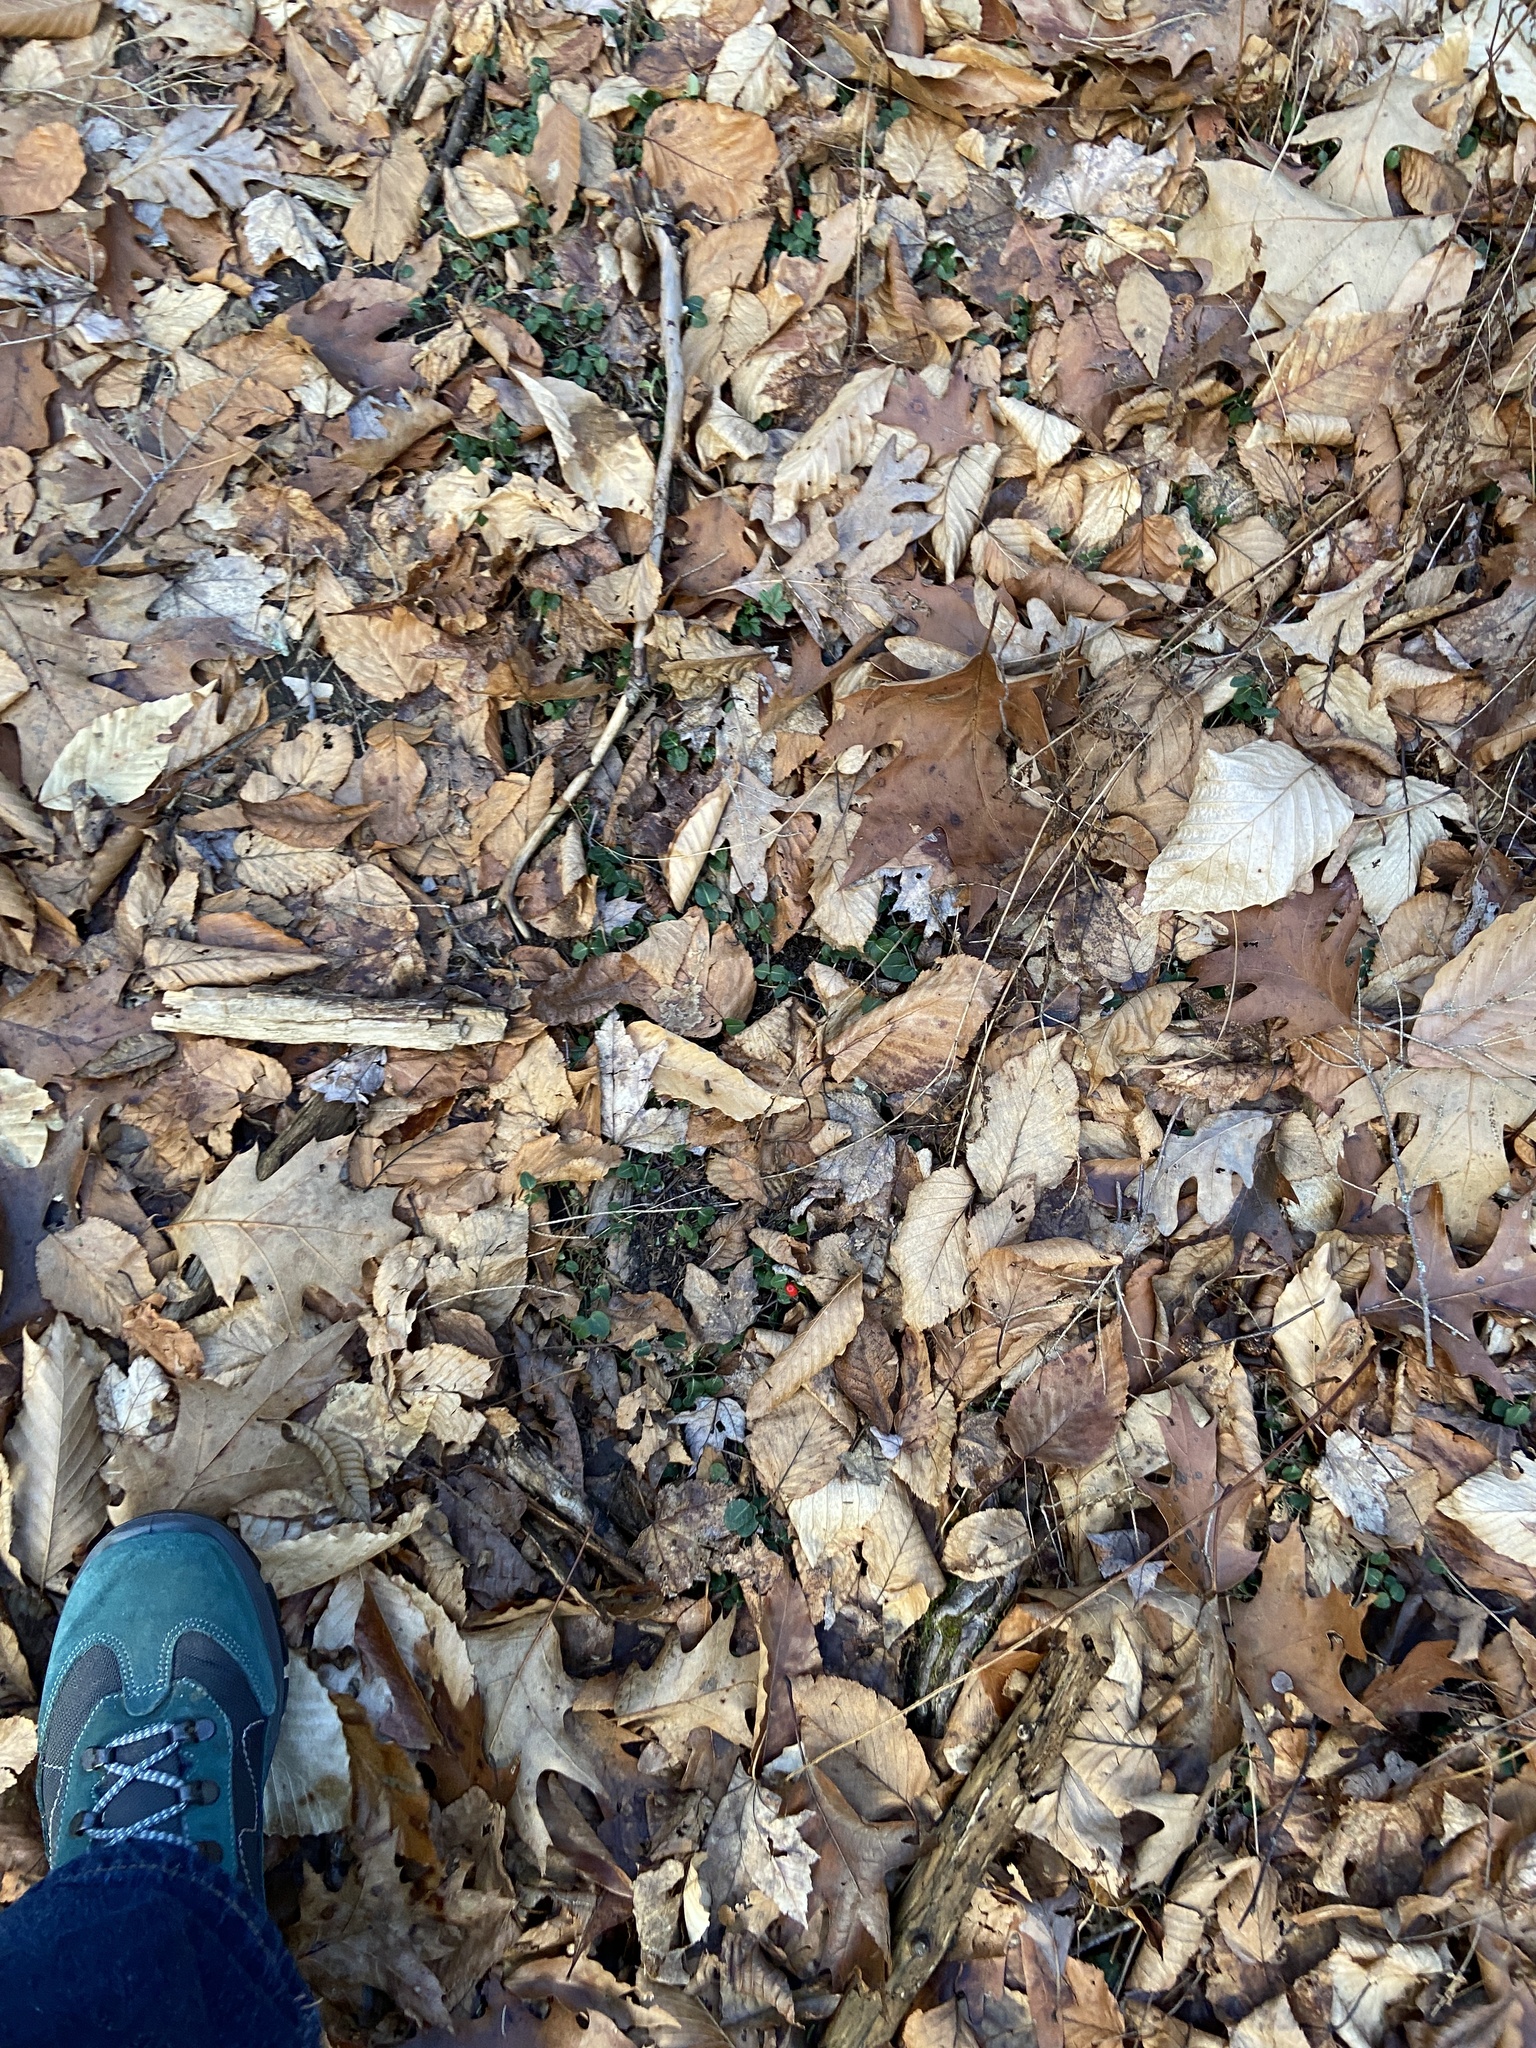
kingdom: Plantae
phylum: Tracheophyta
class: Magnoliopsida
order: Gentianales
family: Rubiaceae
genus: Mitchella
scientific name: Mitchella repens
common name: Partridge-berry
